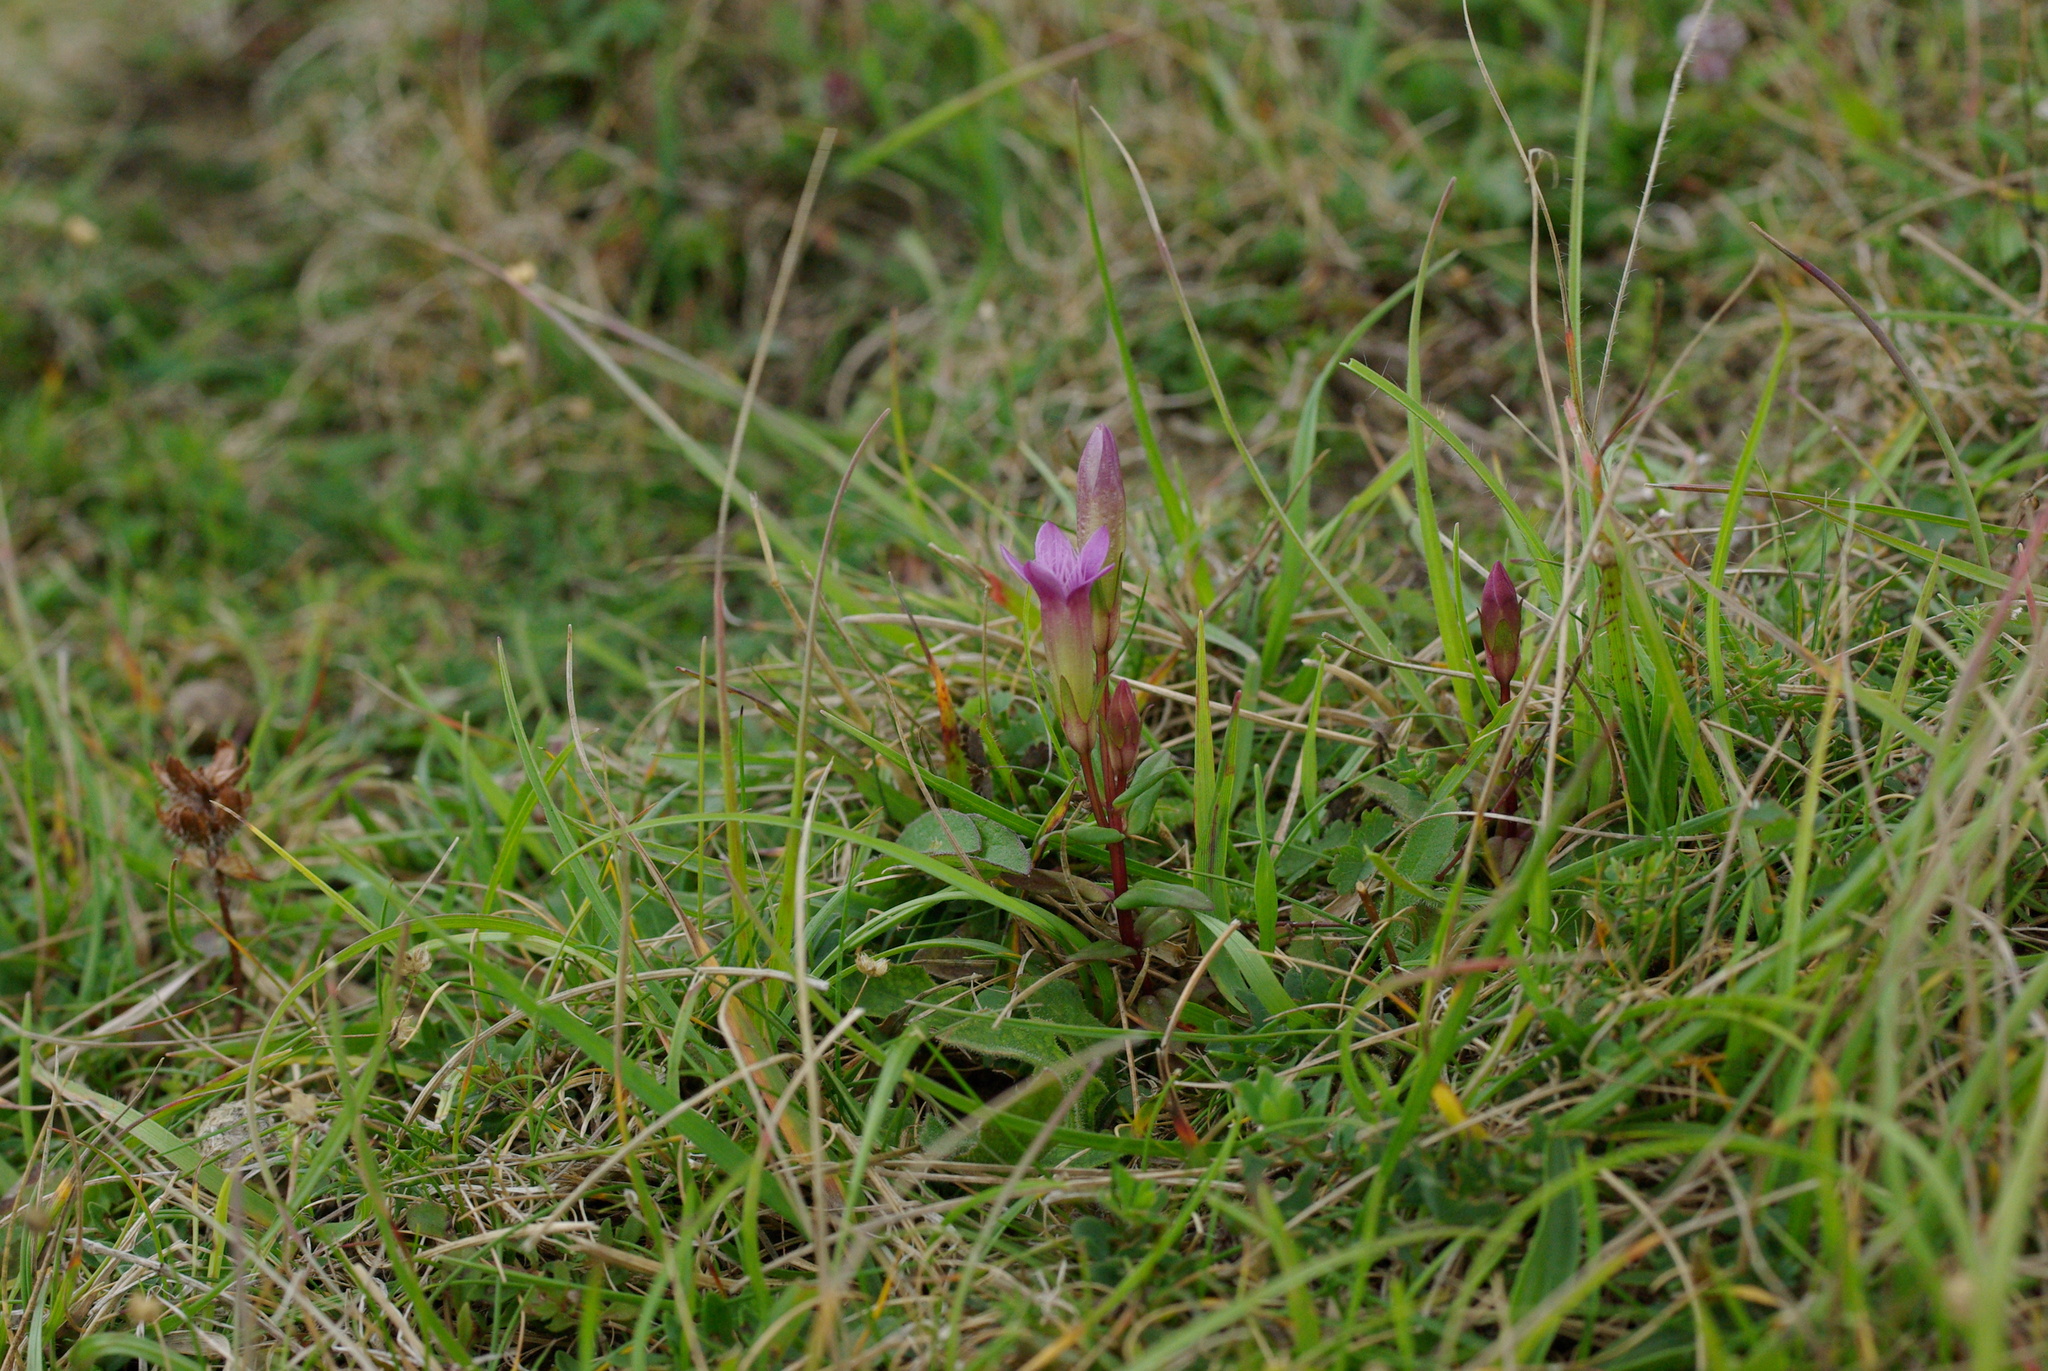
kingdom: Plantae
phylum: Tracheophyta
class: Magnoliopsida
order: Gentianales
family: Gentianaceae
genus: Gentianella
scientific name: Gentianella amarella
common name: Autumn gentian
